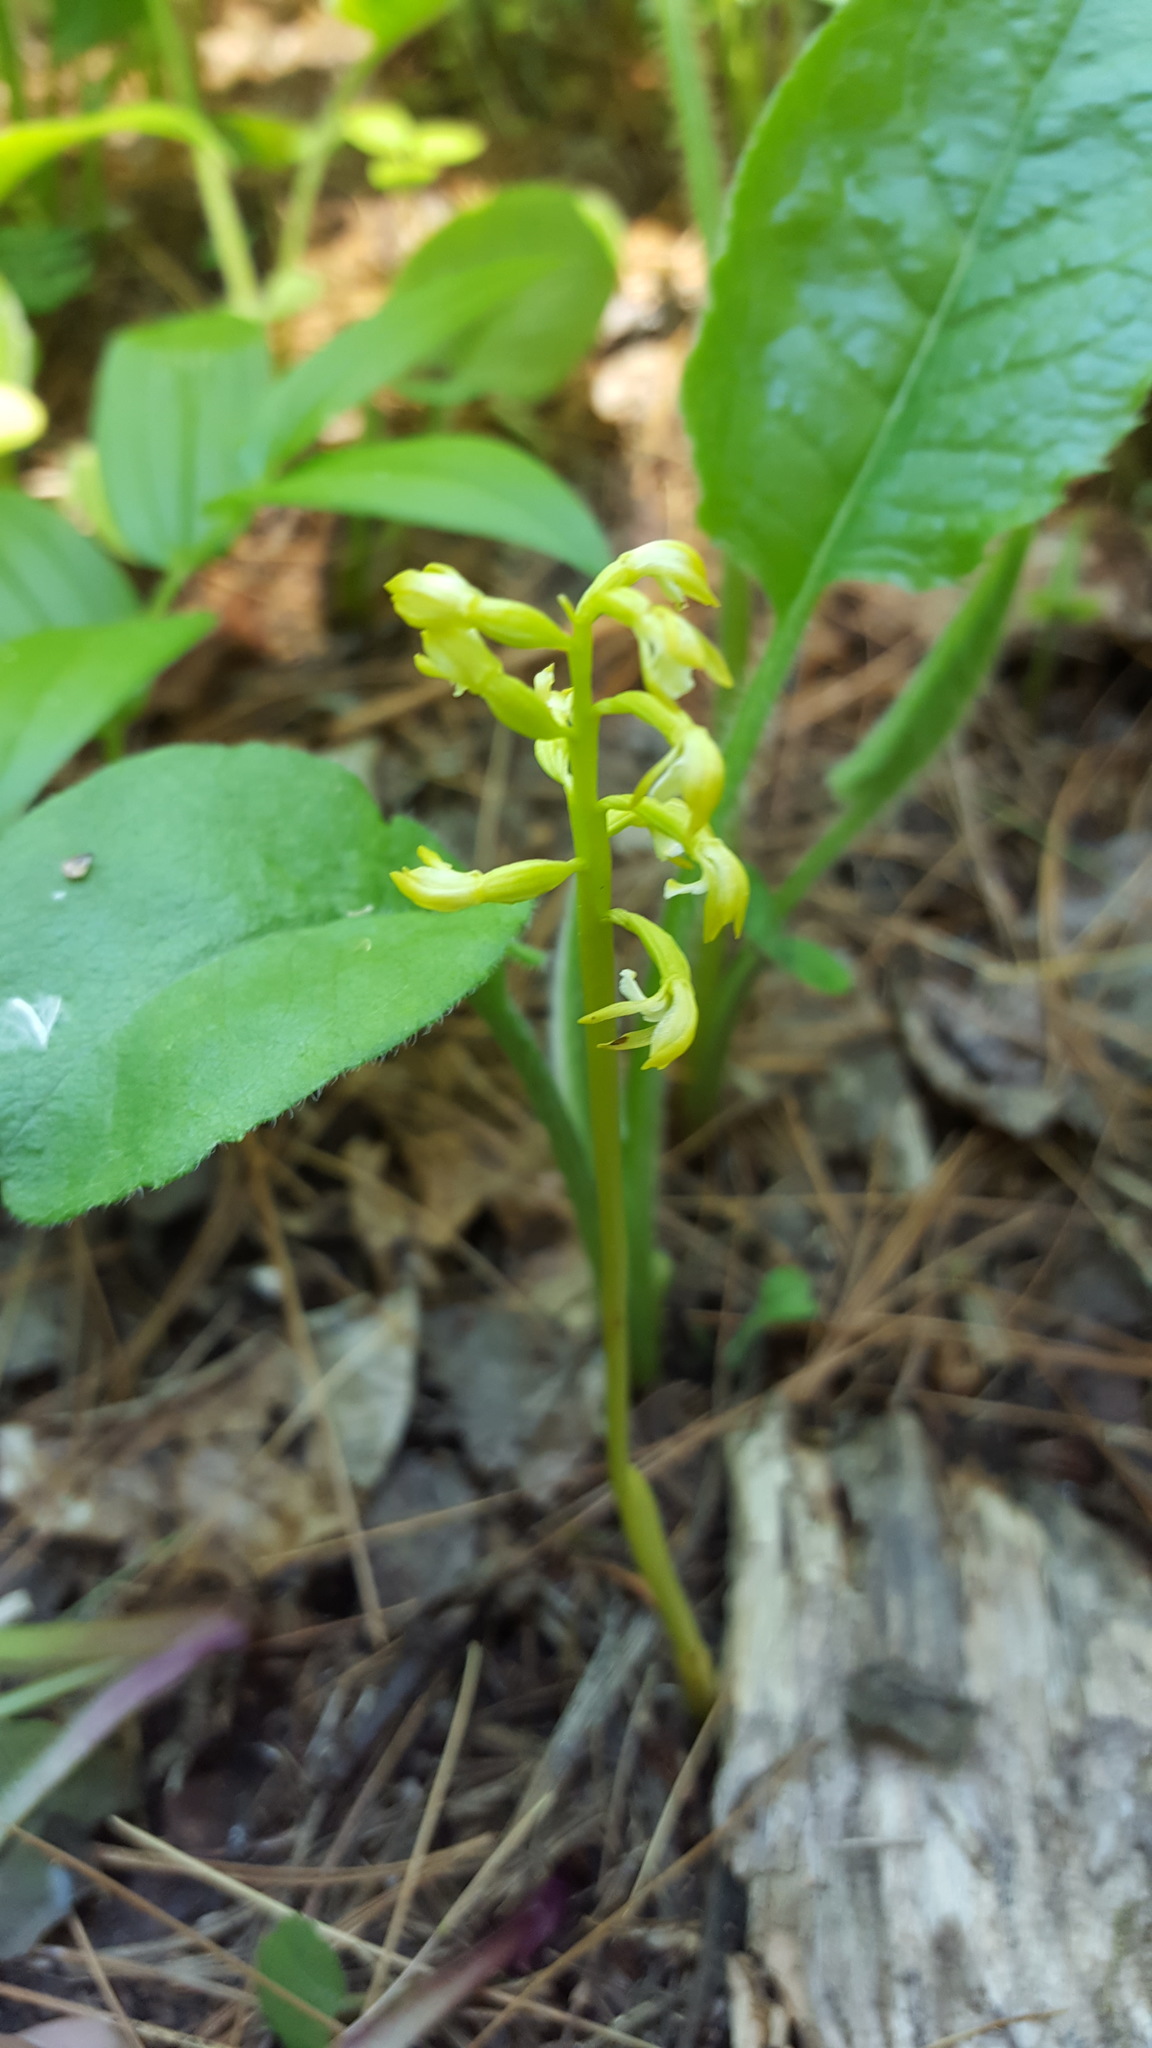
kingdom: Plantae
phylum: Tracheophyta
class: Liliopsida
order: Asparagales
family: Orchidaceae
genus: Corallorhiza
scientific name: Corallorhiza trifida
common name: Yellow coralroot
